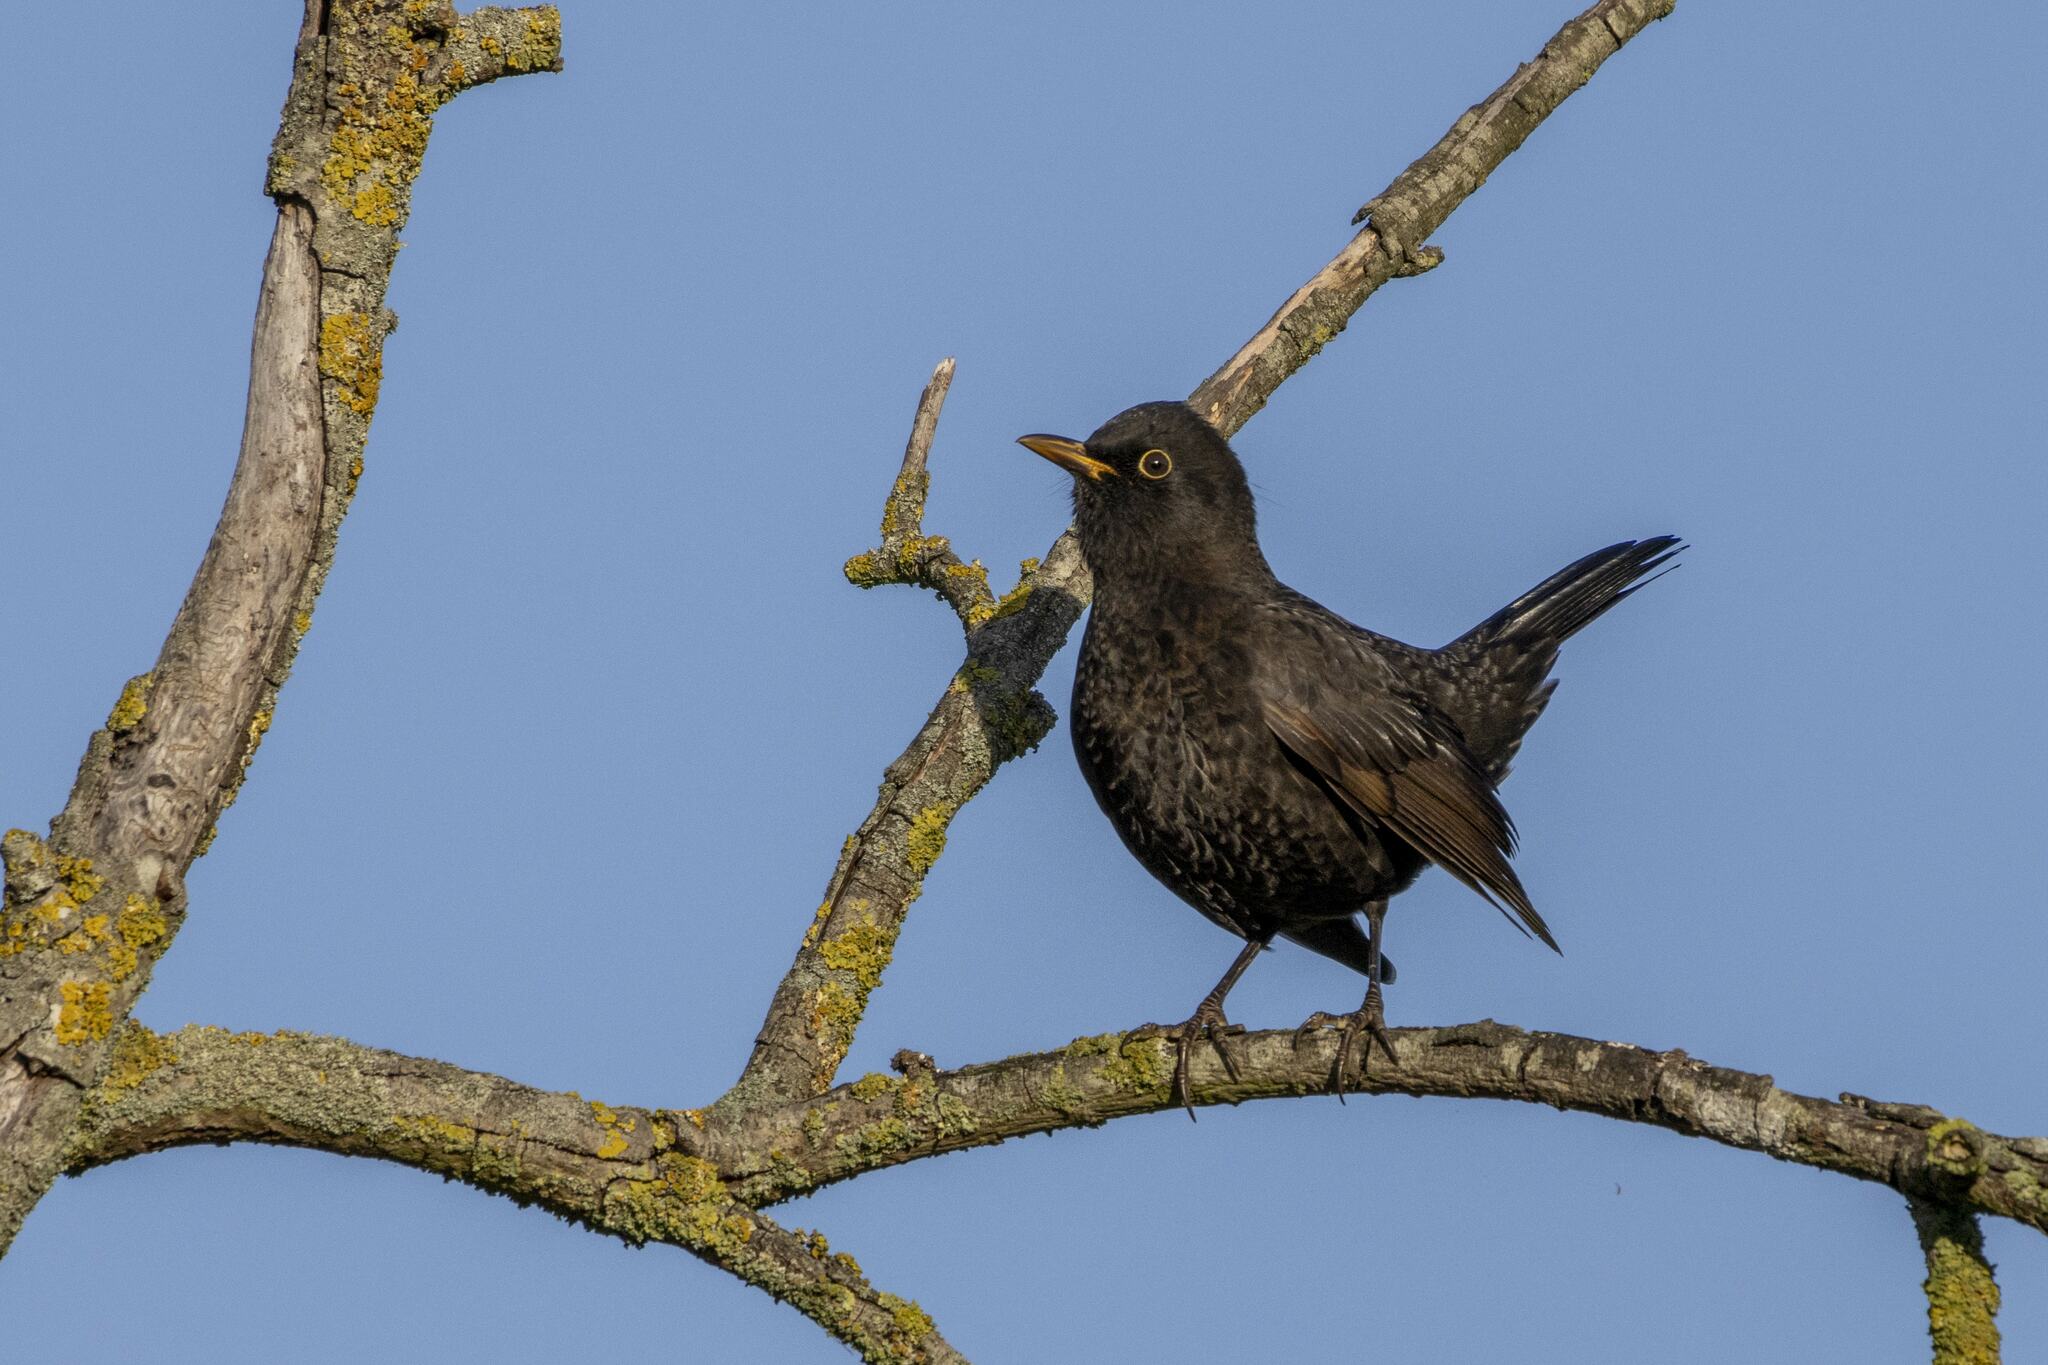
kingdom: Animalia
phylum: Chordata
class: Aves
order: Passeriformes
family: Turdidae
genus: Turdus
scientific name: Turdus merula
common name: Common blackbird
